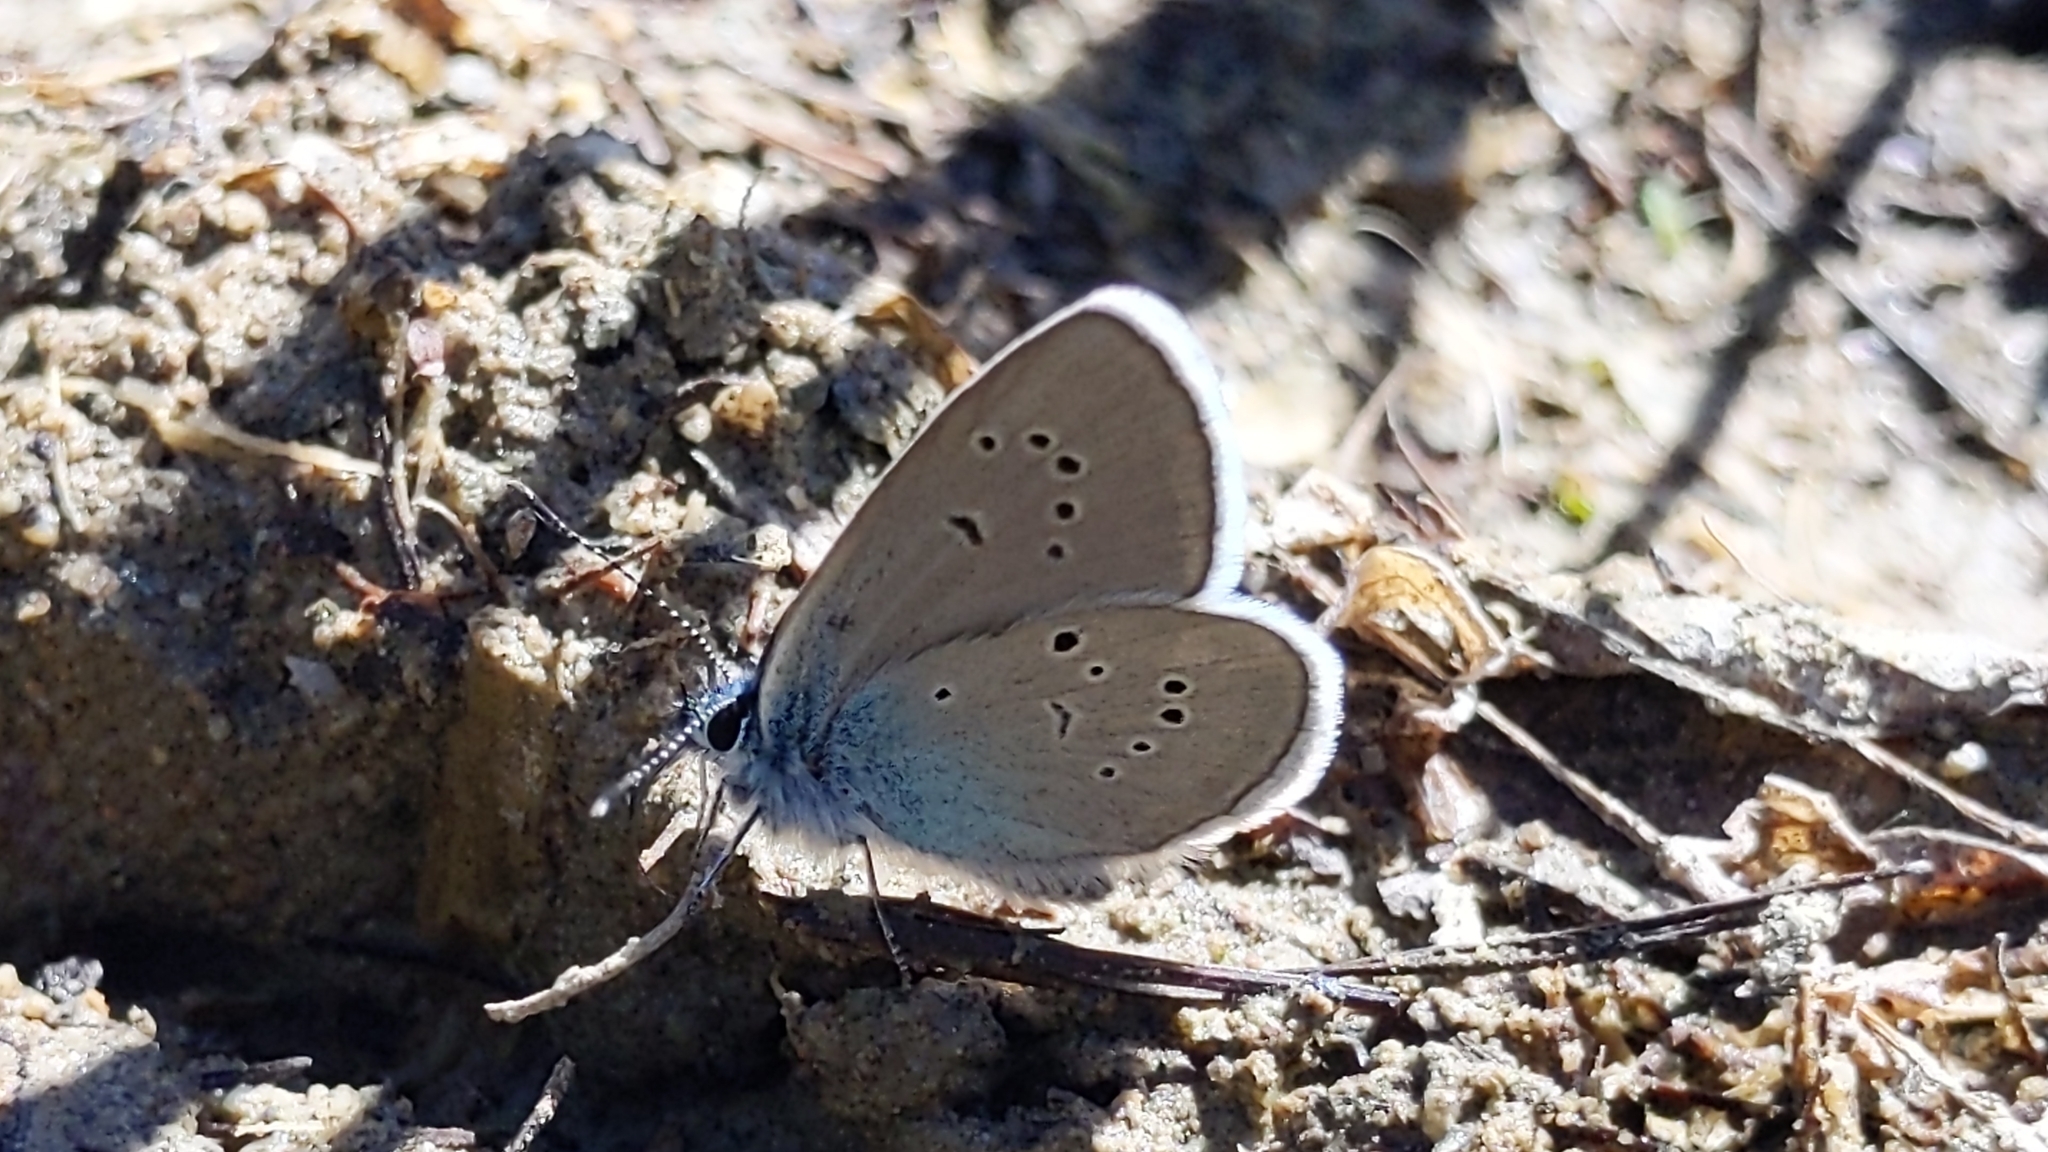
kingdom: Animalia
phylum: Arthropoda
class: Insecta
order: Lepidoptera
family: Lycaenidae
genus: Cyaniris
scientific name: Cyaniris semiargus
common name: Mazarine blue
